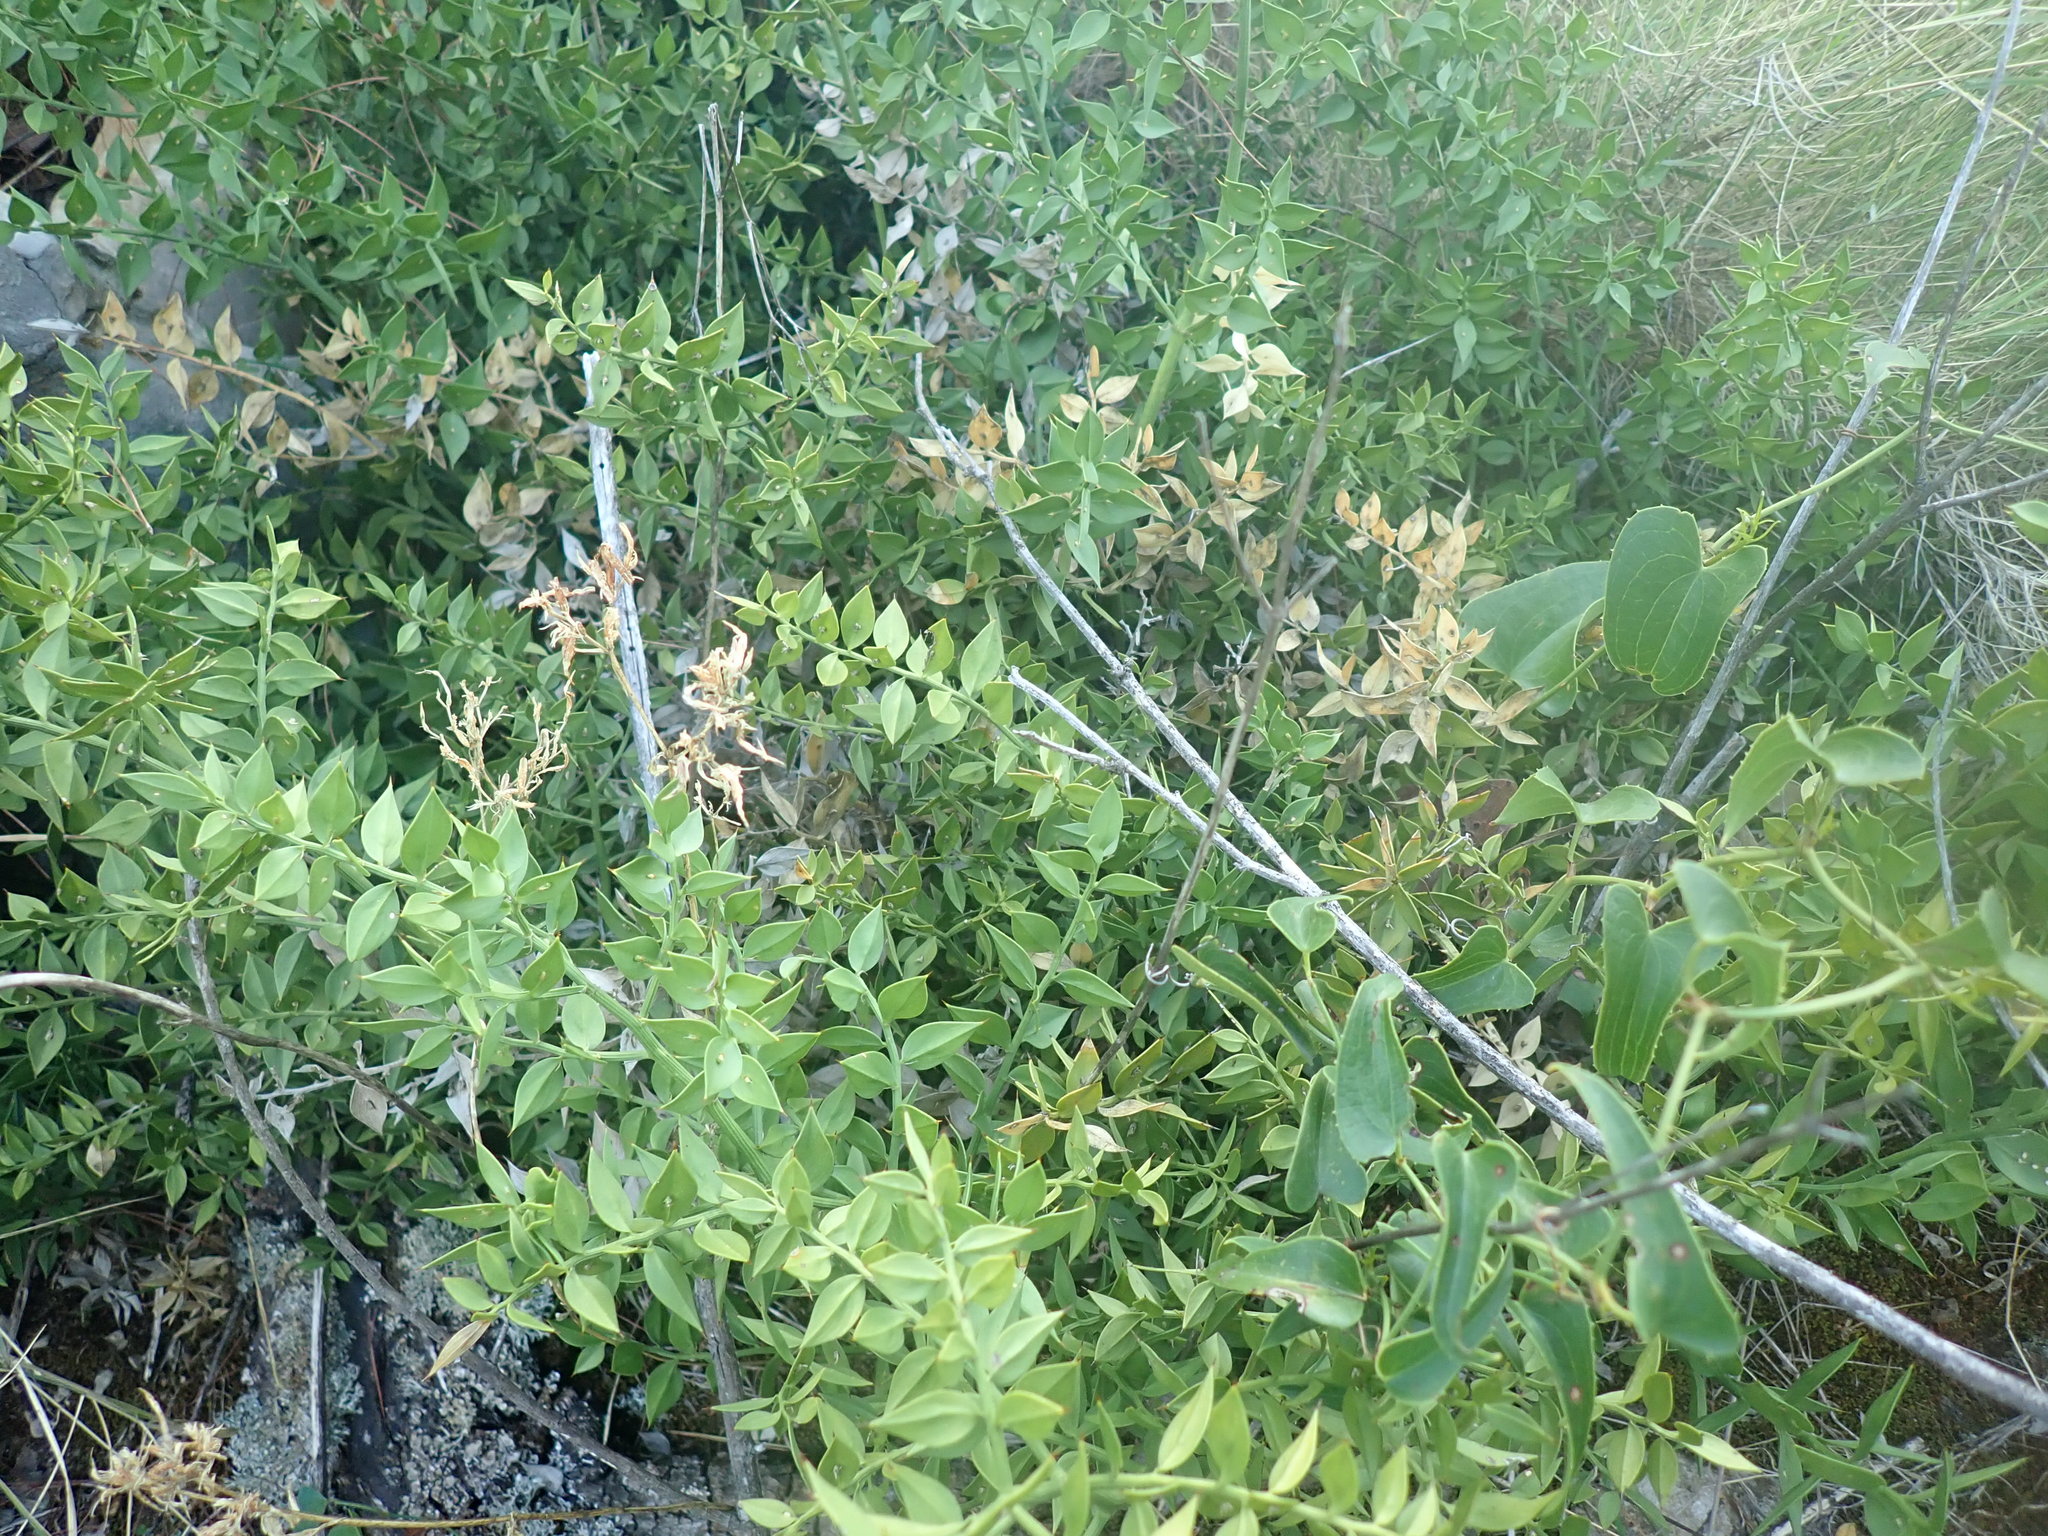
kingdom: Plantae
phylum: Tracheophyta
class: Liliopsida
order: Asparagales
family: Asparagaceae
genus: Ruscus
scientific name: Ruscus aculeatus
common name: Butcher's-broom
